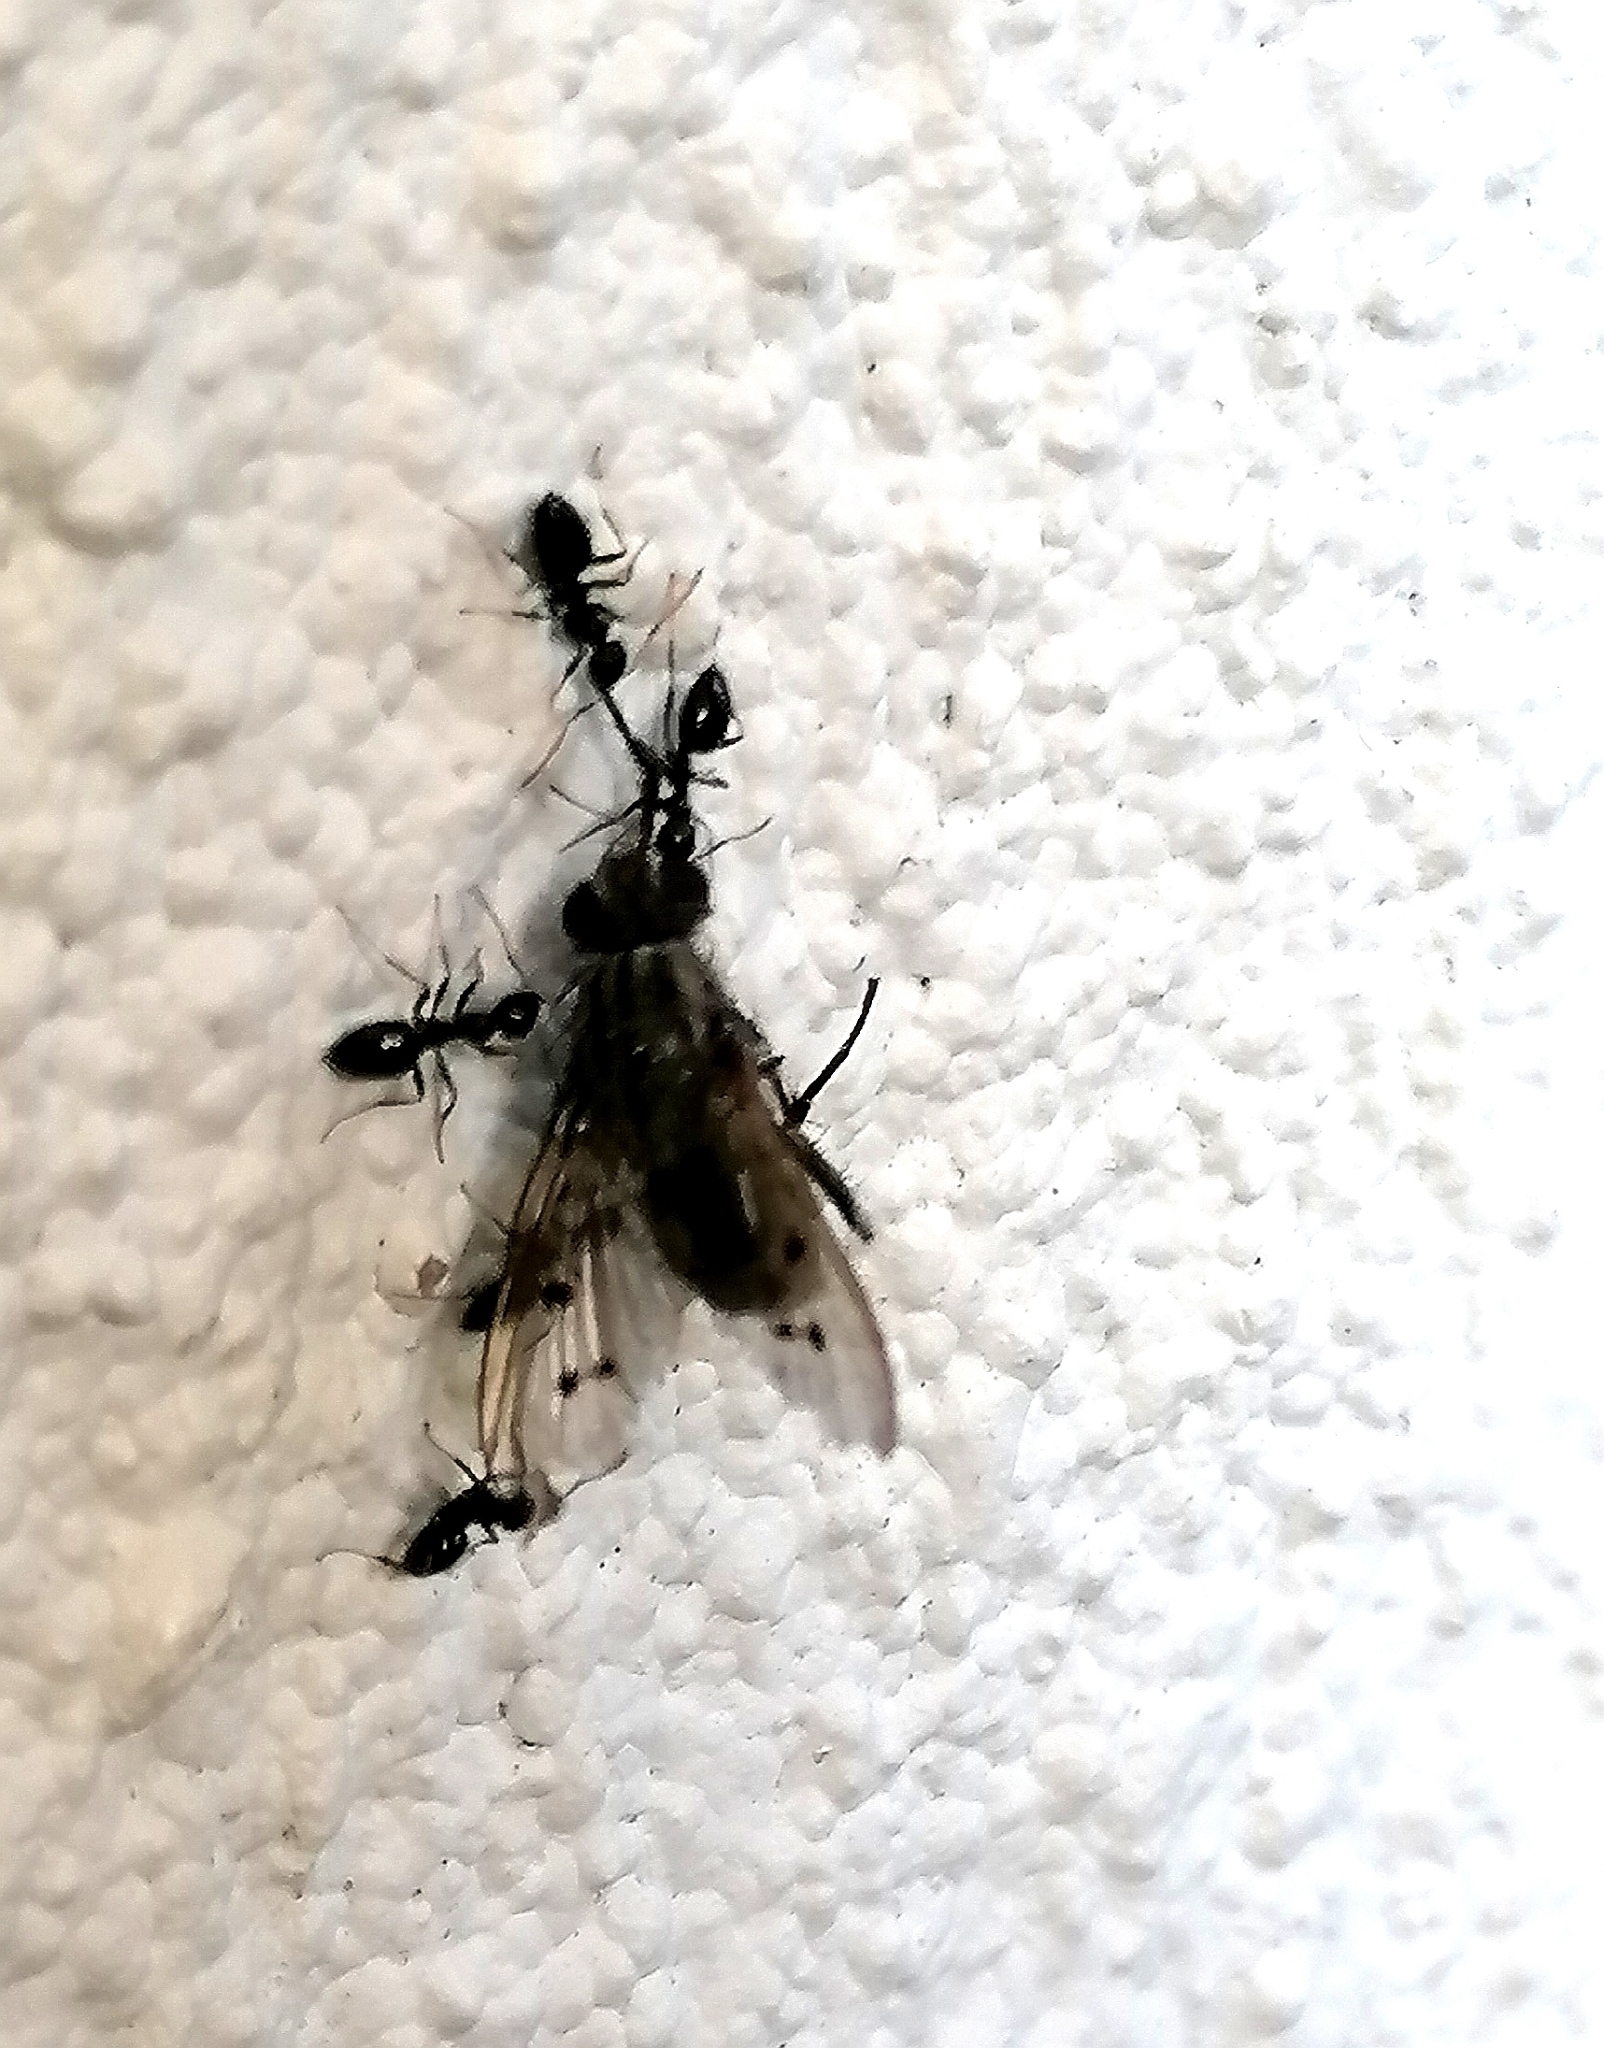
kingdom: Animalia
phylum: Arthropoda
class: Insecta
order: Hymenoptera
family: Formicidae
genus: Lepisiota
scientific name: Lepisiota capensis
